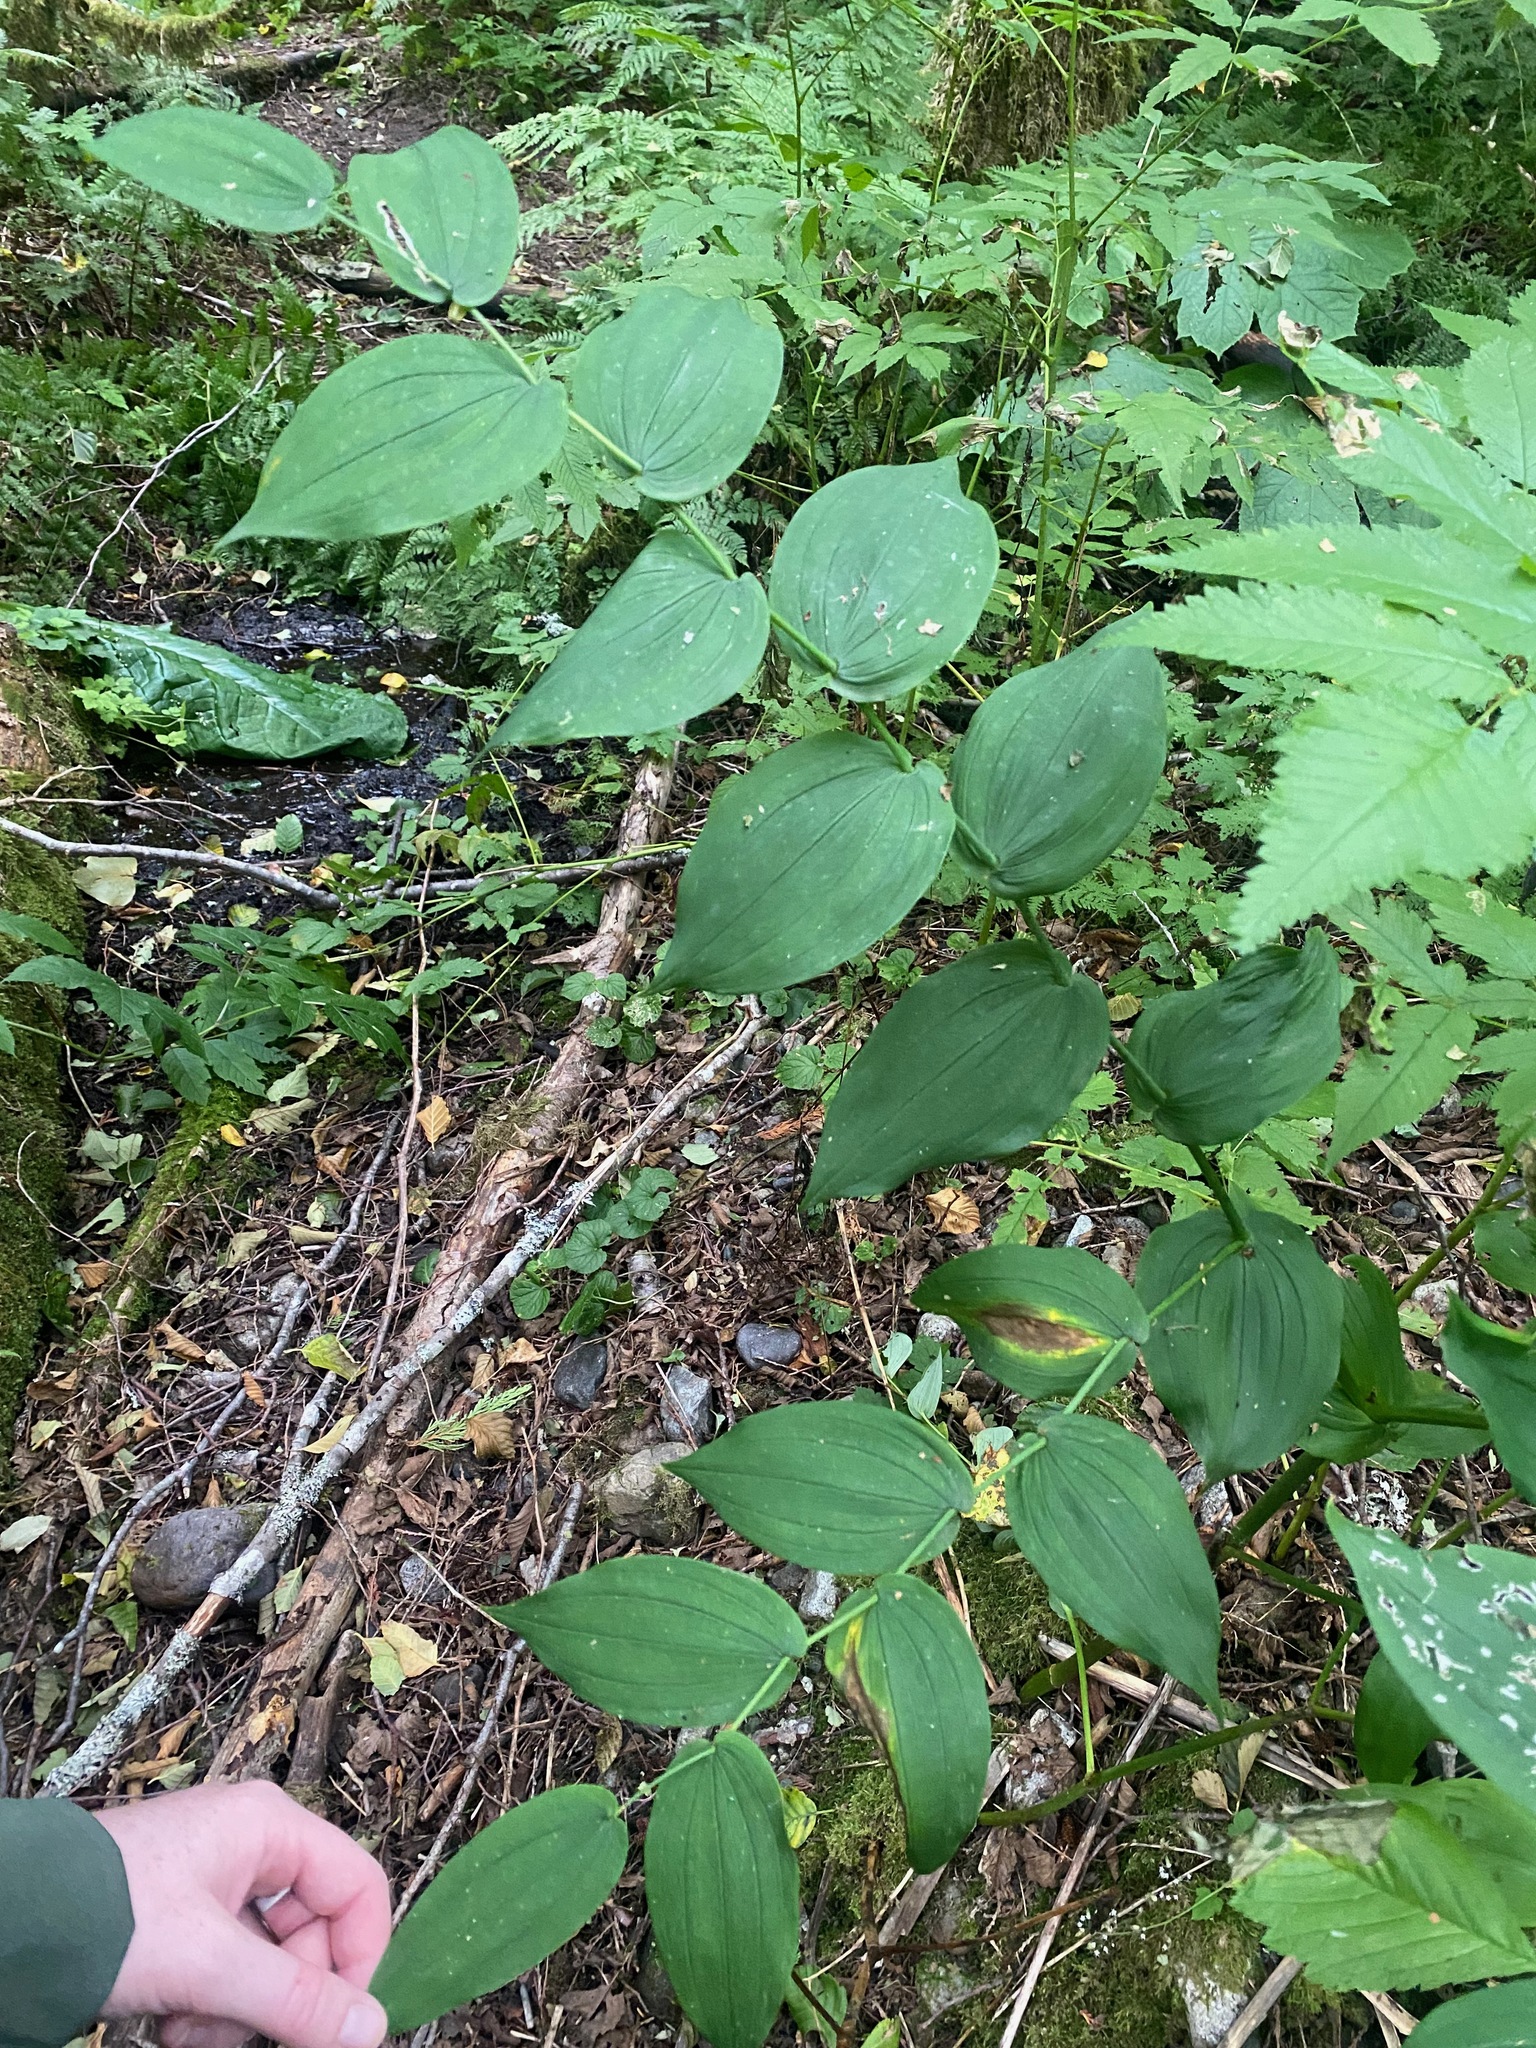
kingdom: Plantae
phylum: Tracheophyta
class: Liliopsida
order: Liliales
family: Liliaceae
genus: Streptopus
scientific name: Streptopus amplexifolius
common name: Clasp twisted stalk
